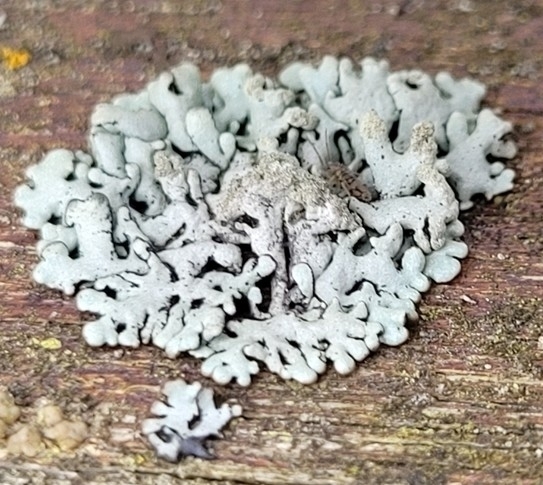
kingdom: Fungi
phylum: Ascomycota
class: Lecanoromycetes
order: Lecanorales
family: Parmeliaceae
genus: Hypogymnia
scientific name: Hypogymnia tubulosa
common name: Powder-headed tube lichen
